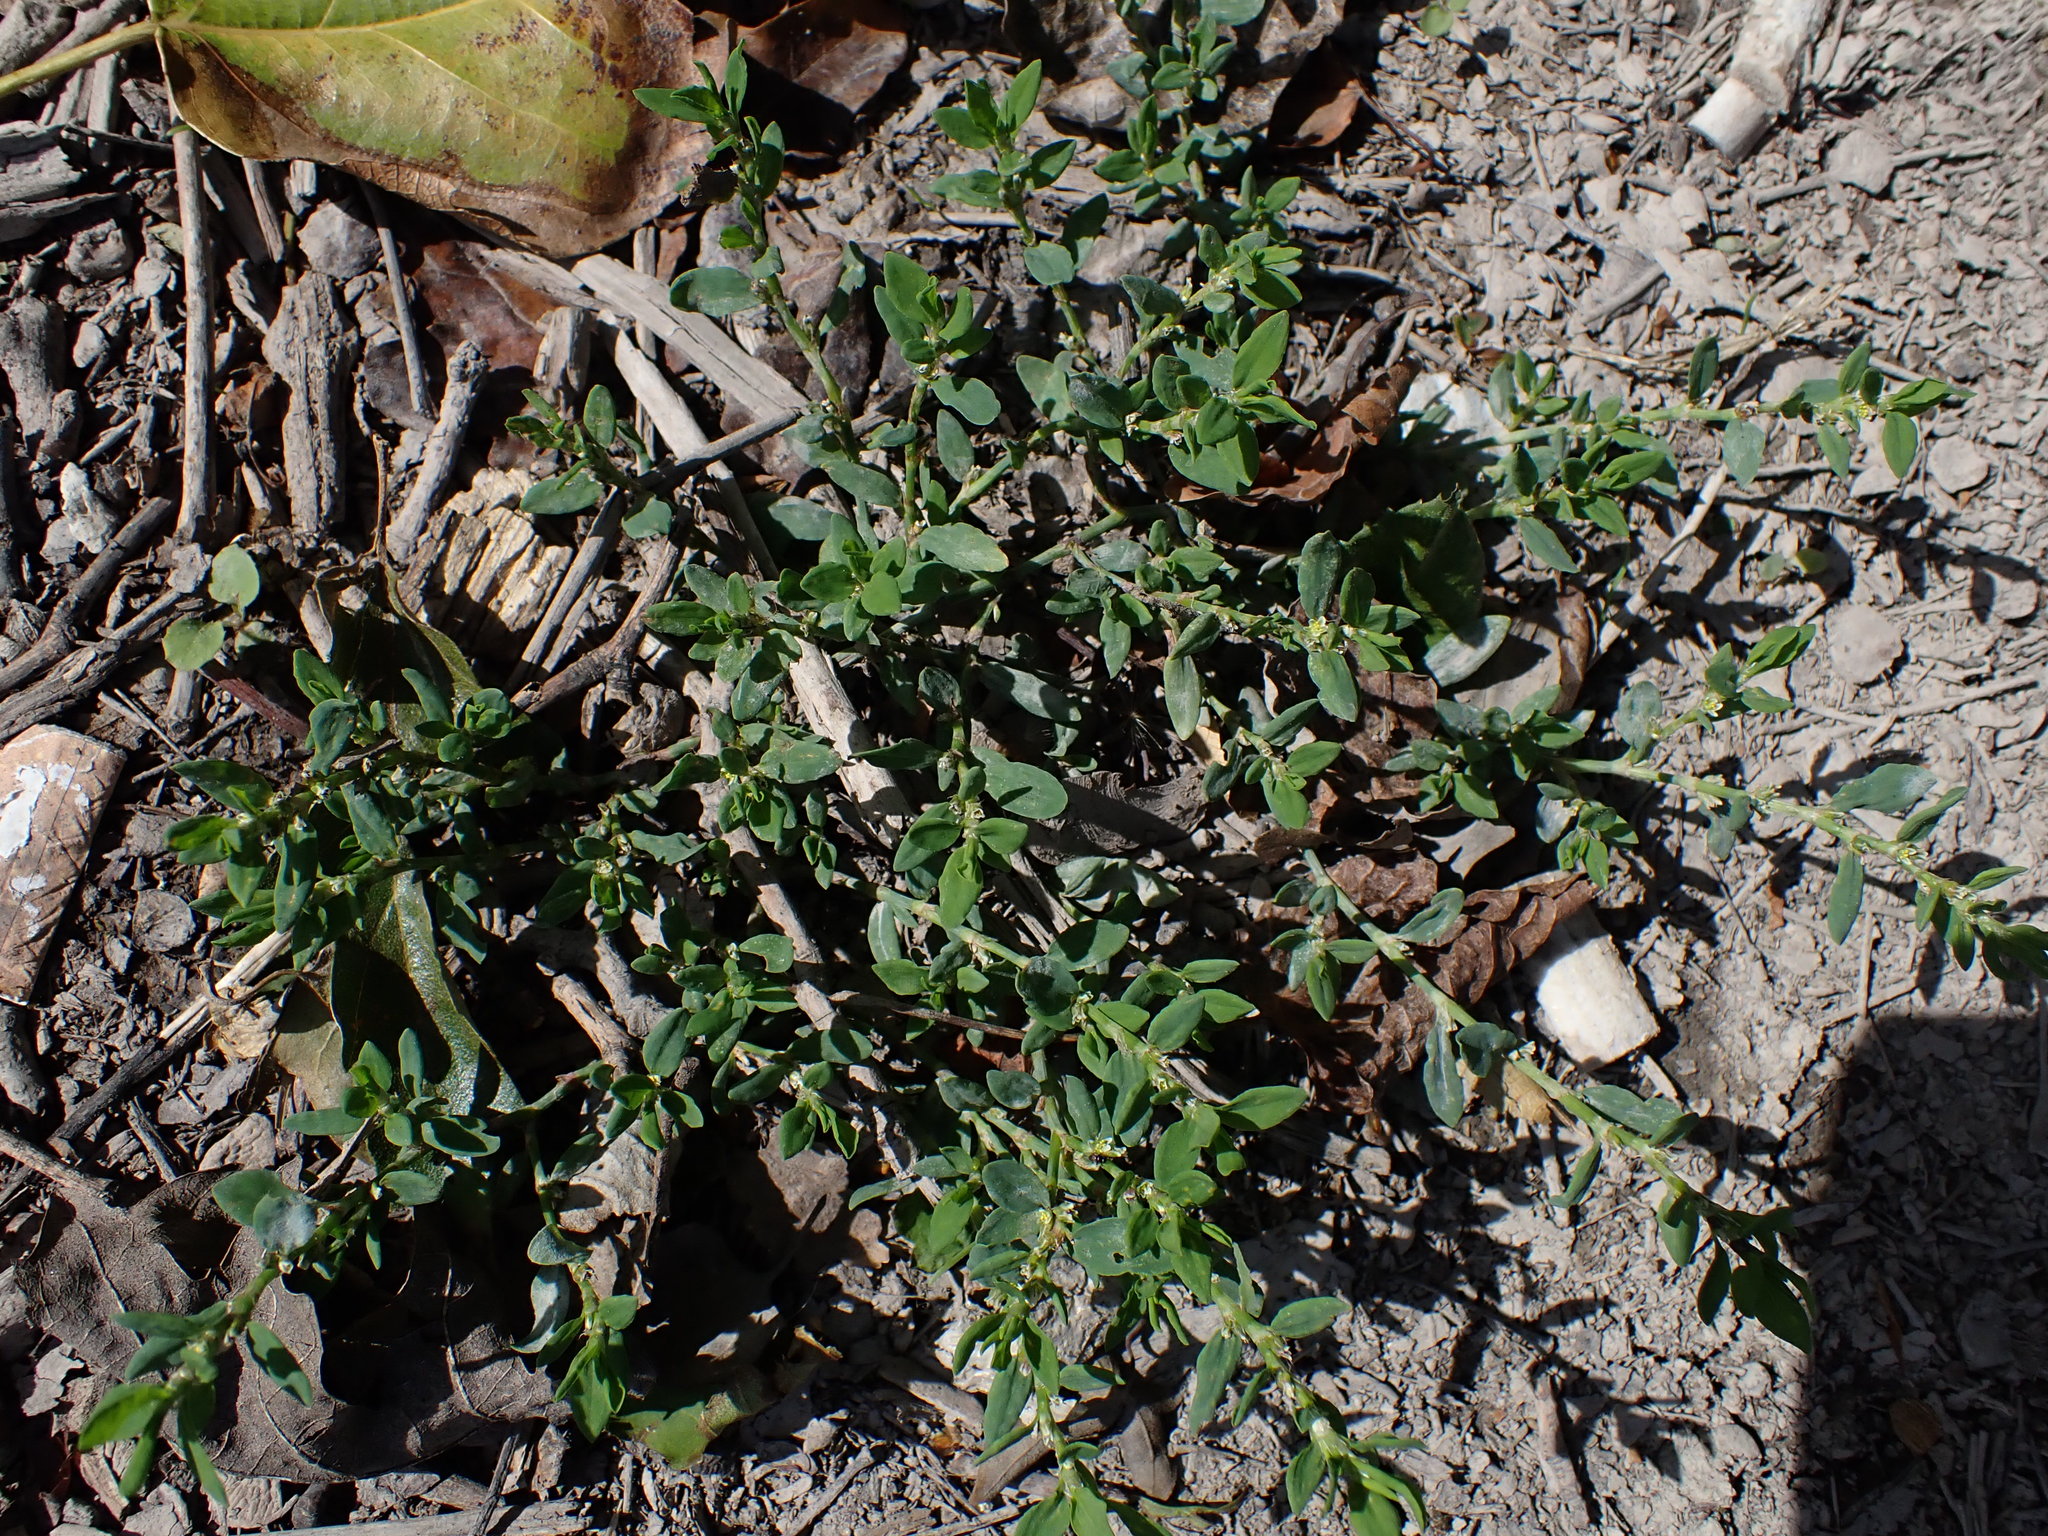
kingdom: Plantae
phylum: Tracheophyta
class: Magnoliopsida
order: Caryophyllales
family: Polygonaceae
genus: Polygonum
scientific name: Polygonum aviculare
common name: Prostrate knotweed
